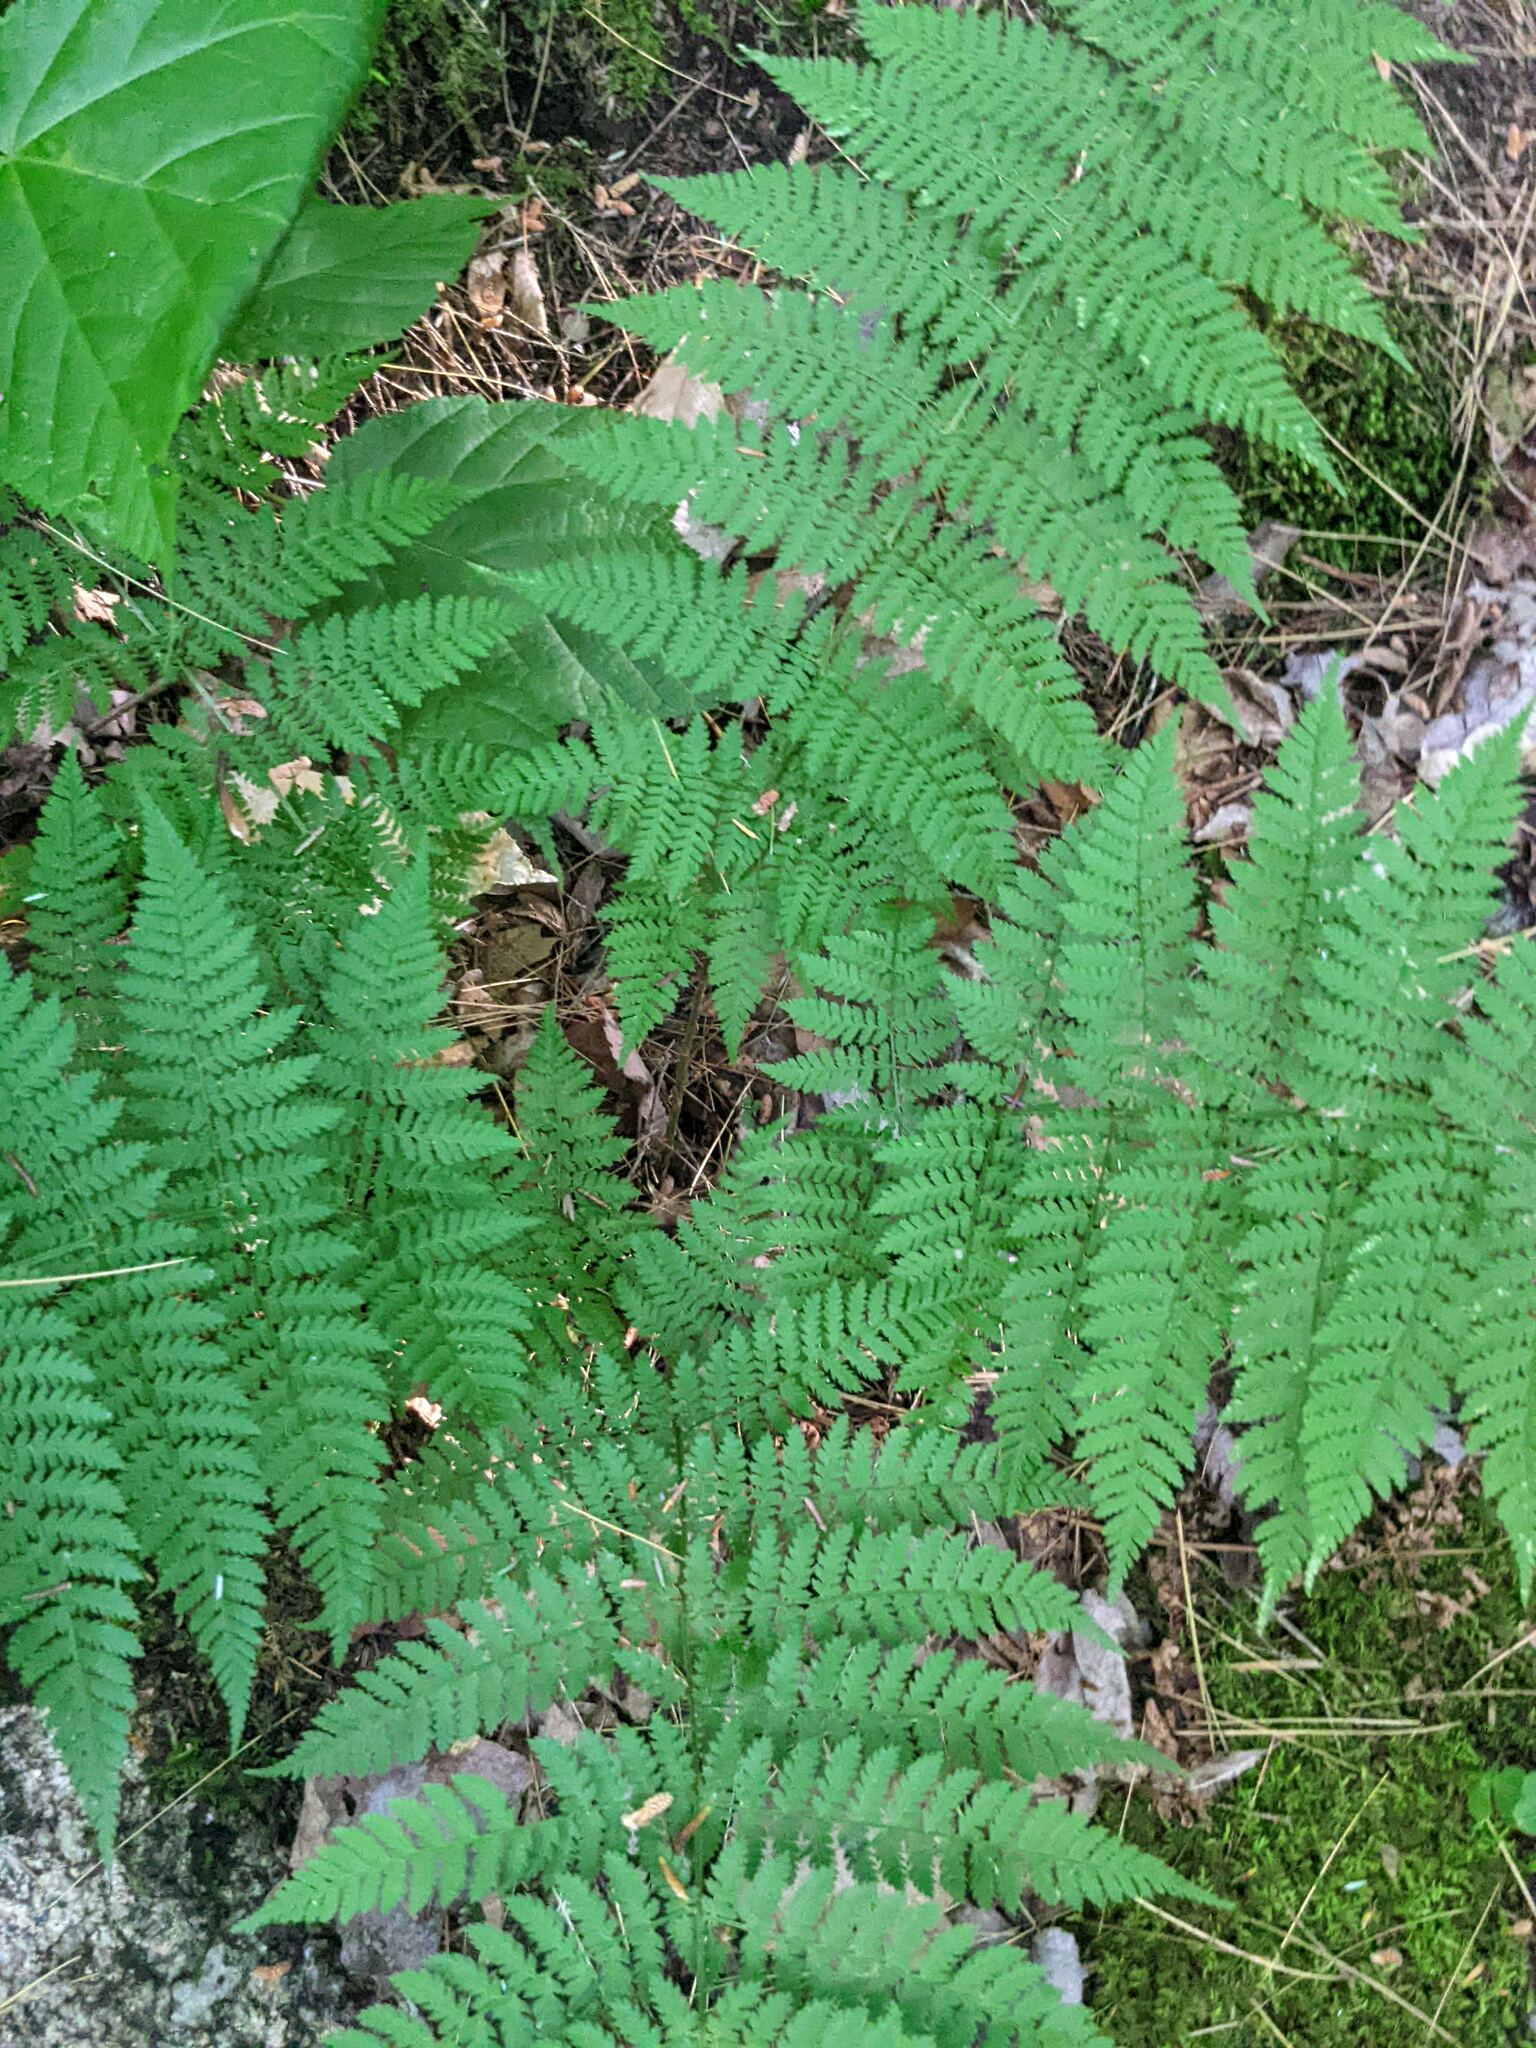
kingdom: Plantae
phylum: Tracheophyta
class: Polypodiopsida
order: Polypodiales
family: Dryopteridaceae
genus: Dryopteris
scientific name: Dryopteris intermedia
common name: Evergreen wood fern
